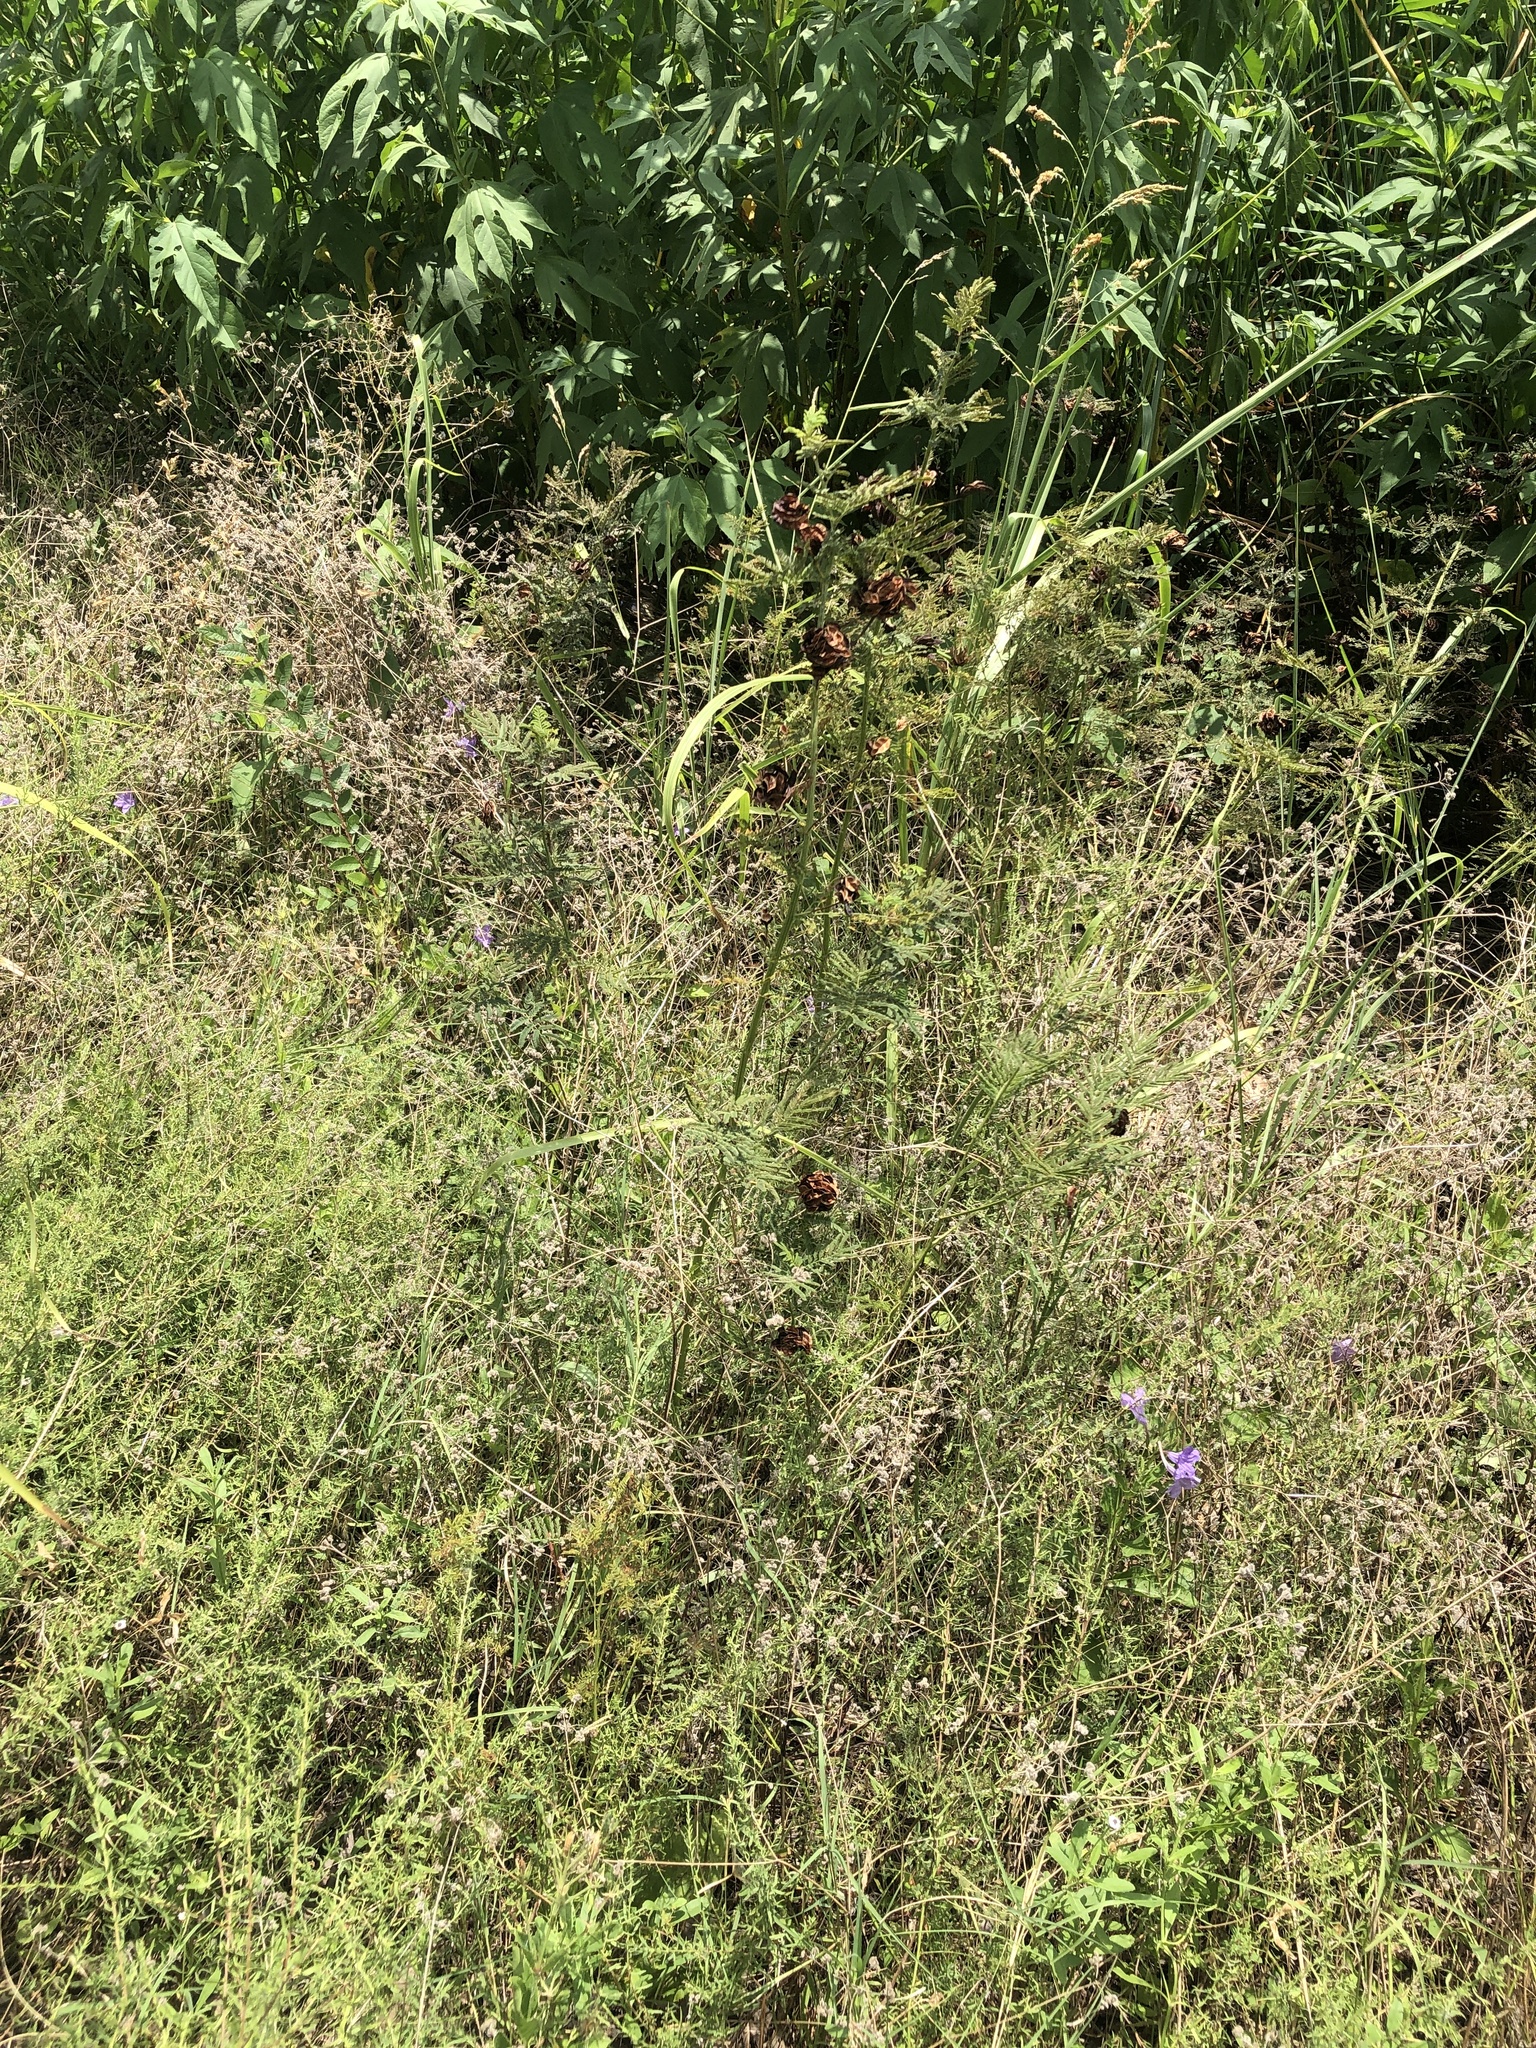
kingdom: Plantae
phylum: Tracheophyta
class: Magnoliopsida
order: Fabales
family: Fabaceae
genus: Desmanthus
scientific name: Desmanthus illinoensis
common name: Illinois bundle-flower
